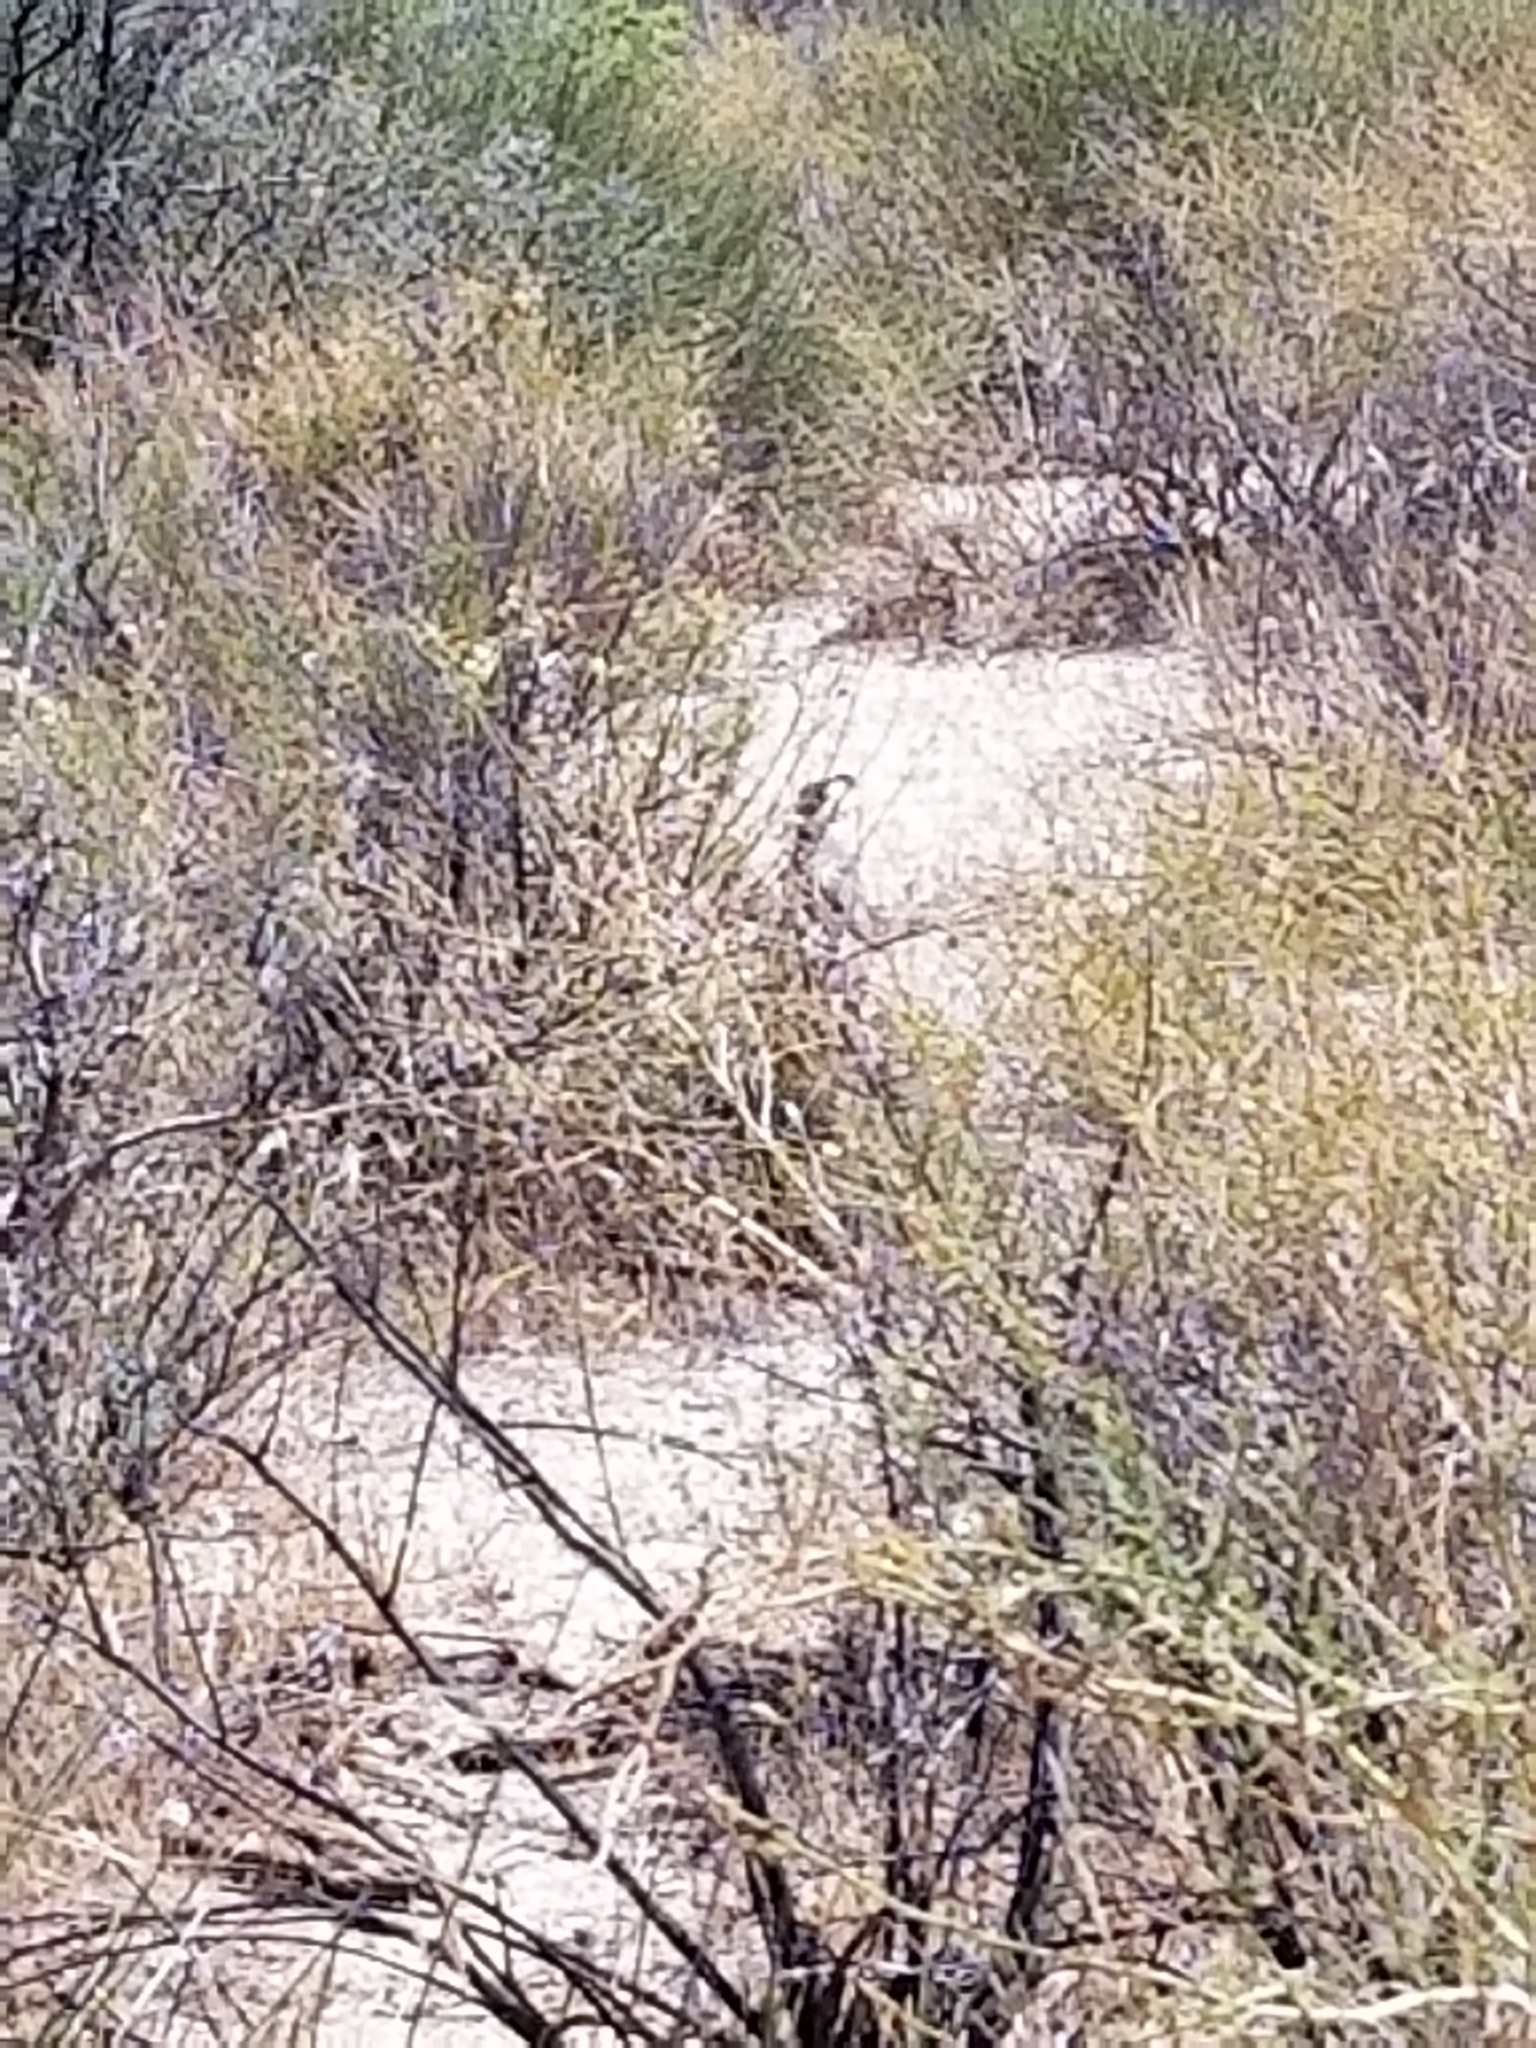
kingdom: Animalia
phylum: Chordata
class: Aves
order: Galliformes
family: Odontophoridae
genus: Callipepla
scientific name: Callipepla gambelii
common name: Gambel's quail
